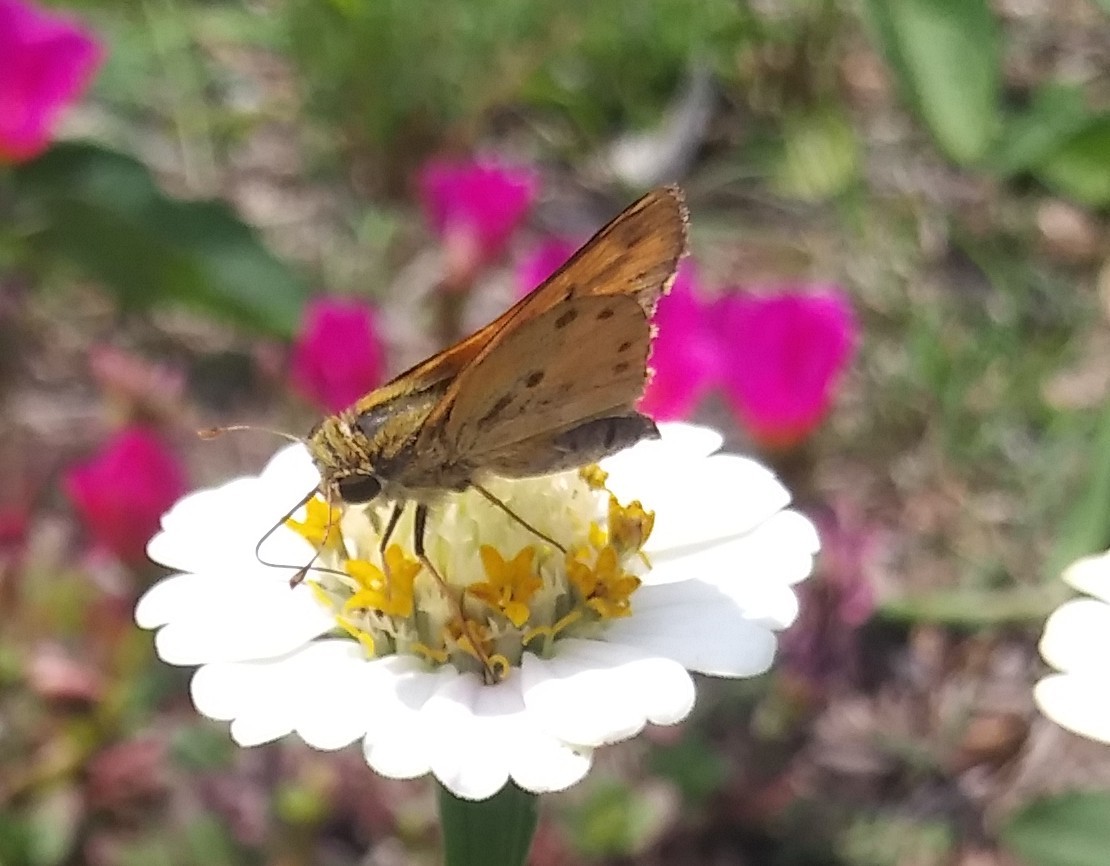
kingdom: Animalia
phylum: Arthropoda
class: Insecta
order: Lepidoptera
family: Hesperiidae
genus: Hylephila
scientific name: Hylephila phyleus
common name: Fiery skipper
